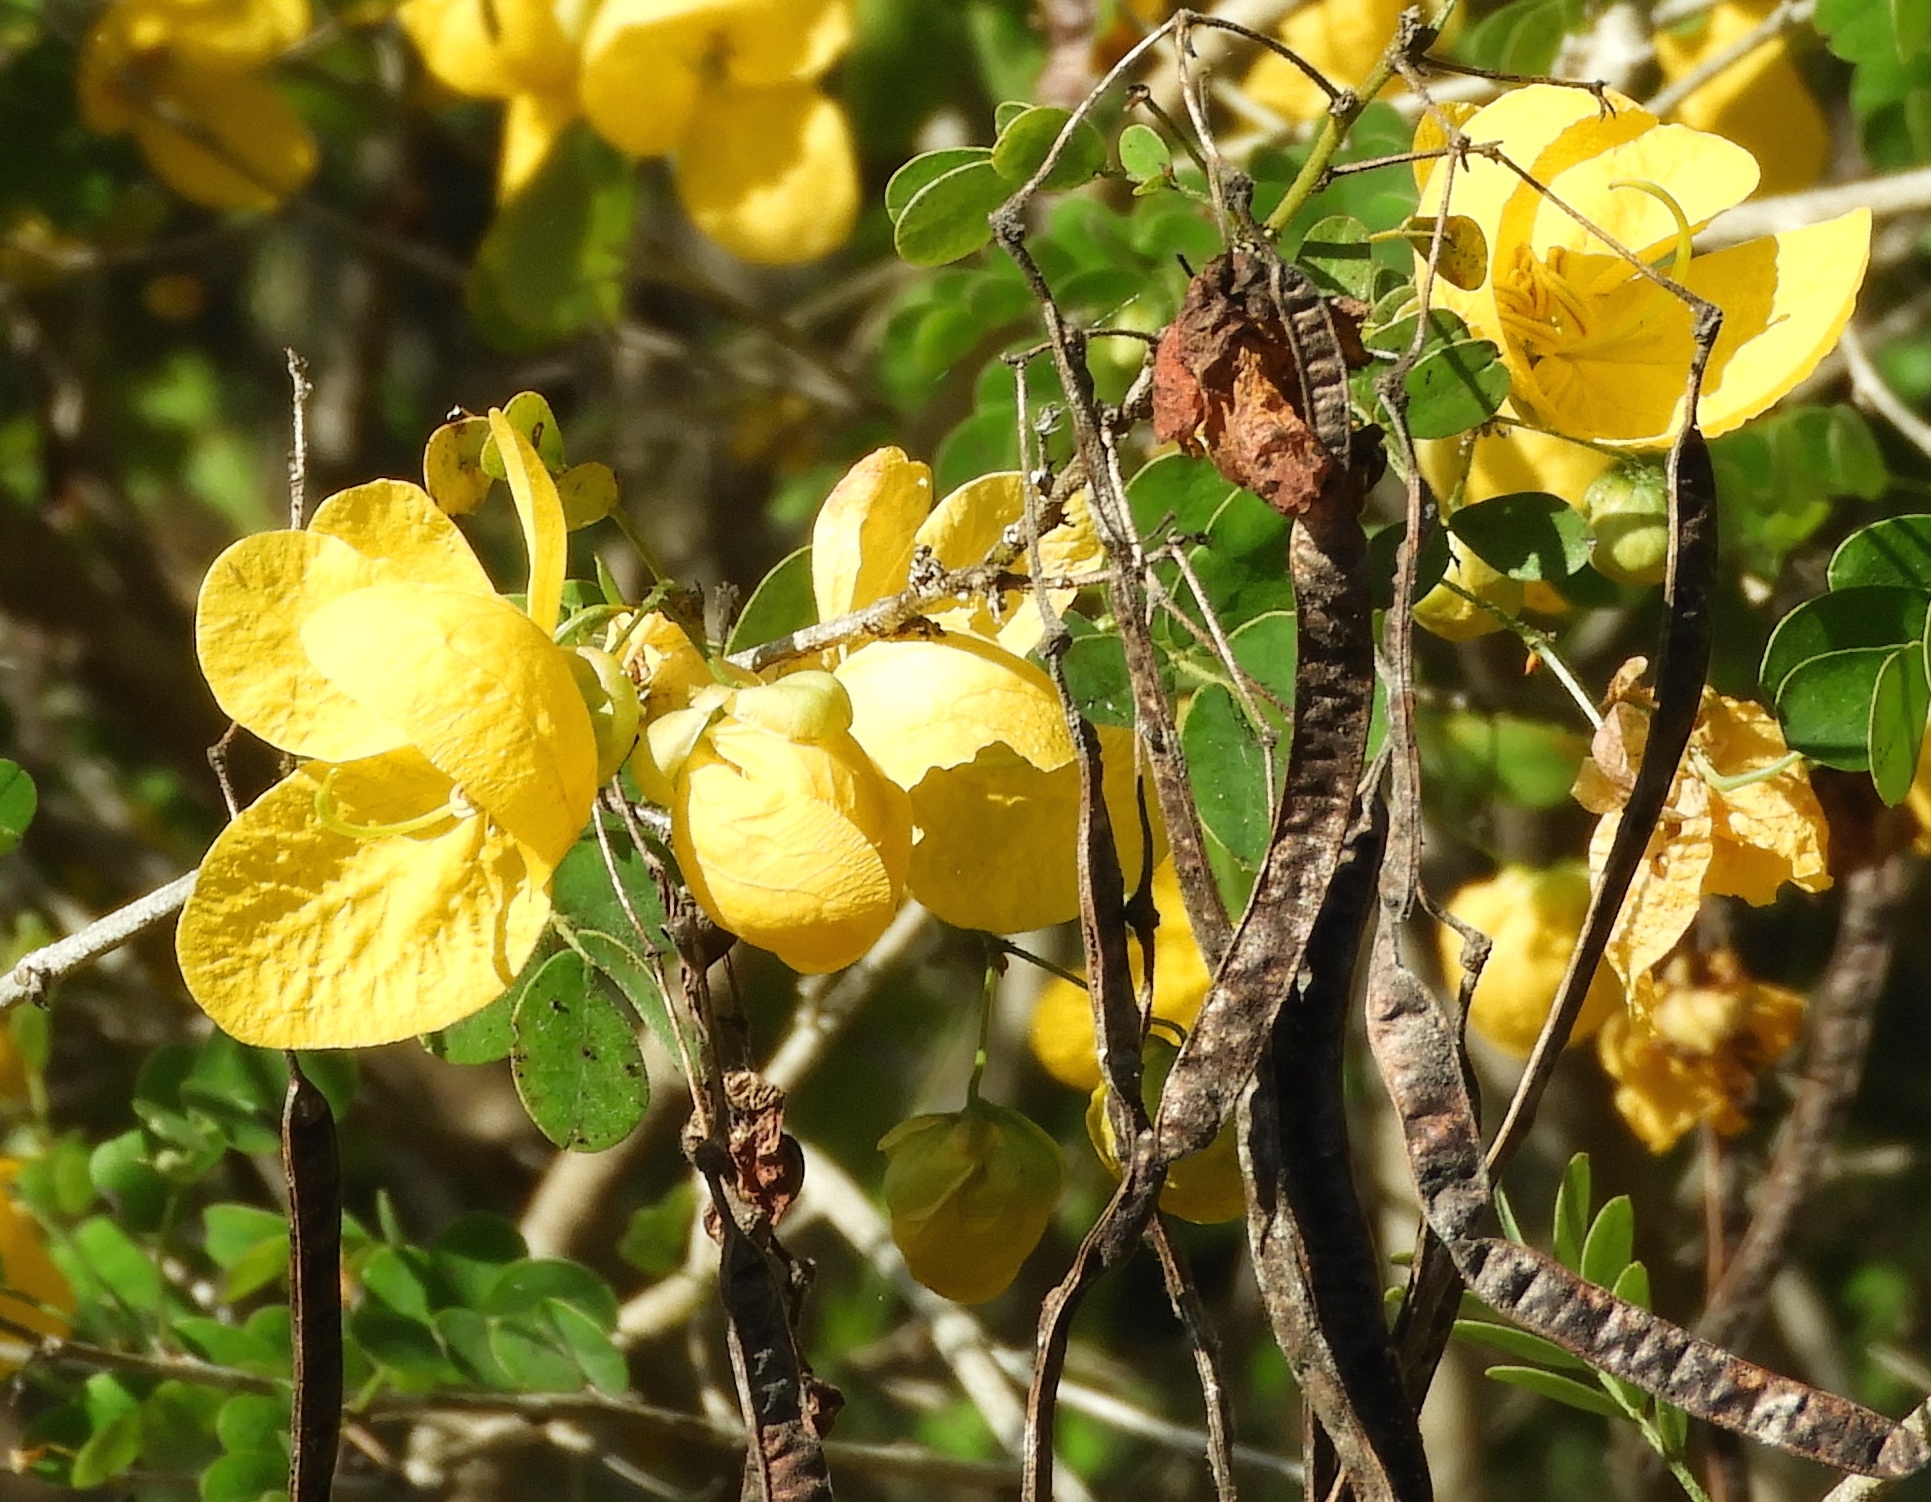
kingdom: Plantae
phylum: Tracheophyta
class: Magnoliopsida
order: Fabales
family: Fabaceae
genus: Senna
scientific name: Senna pallida
